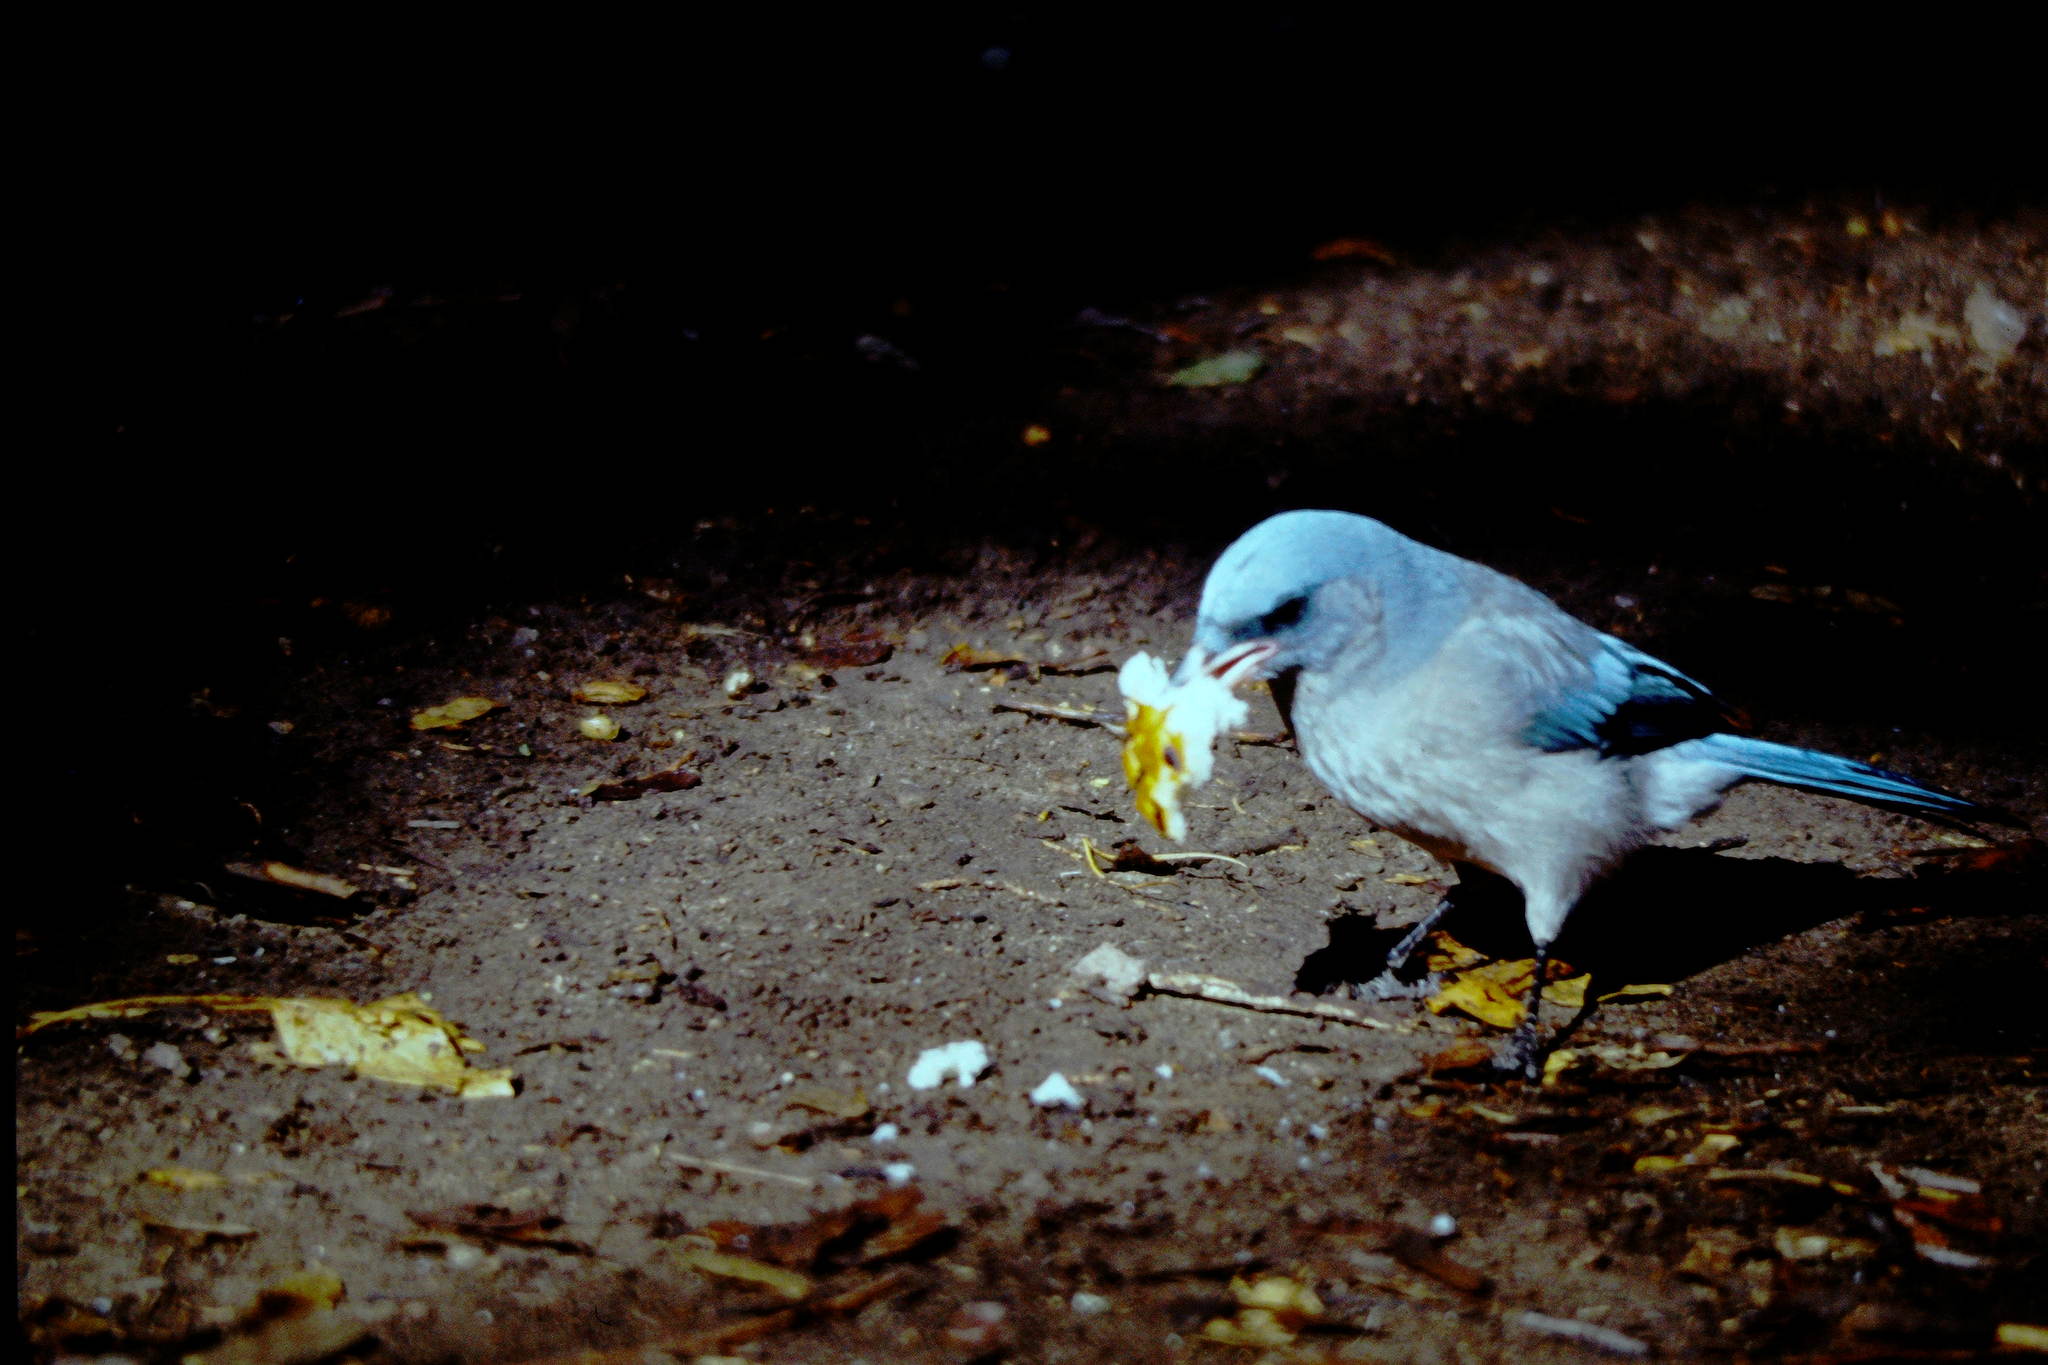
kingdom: Animalia
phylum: Chordata
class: Aves
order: Passeriformes
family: Corvidae
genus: Aphelocoma
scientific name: Aphelocoma wollweberi
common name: Mexican jay
